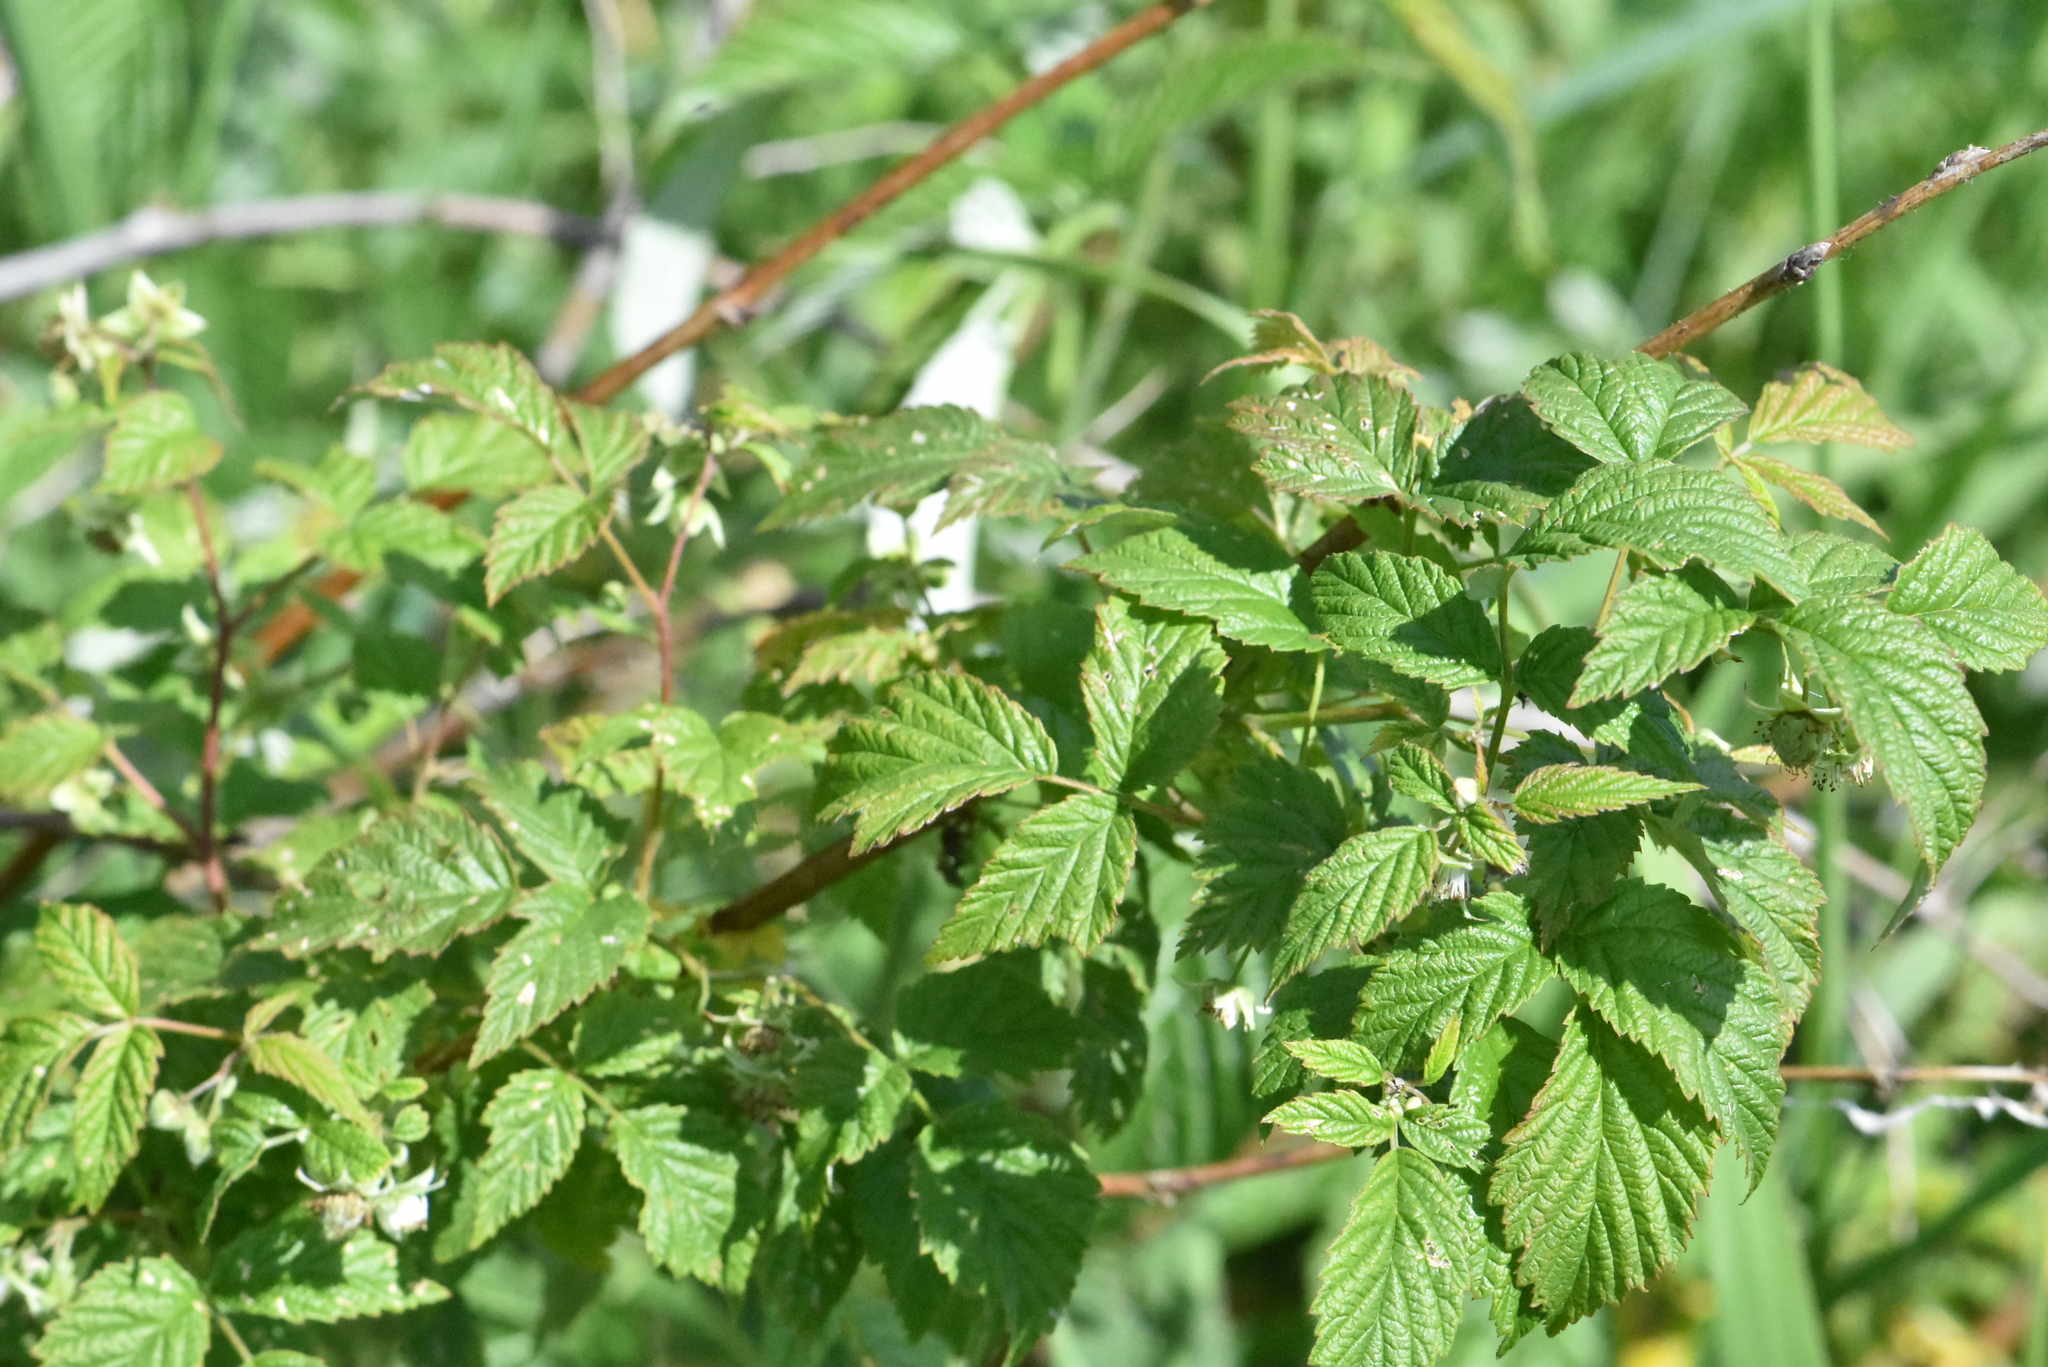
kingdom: Plantae
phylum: Tracheophyta
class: Magnoliopsida
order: Rosales
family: Rosaceae
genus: Rubus
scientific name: Rubus idaeus
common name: Raspberry
